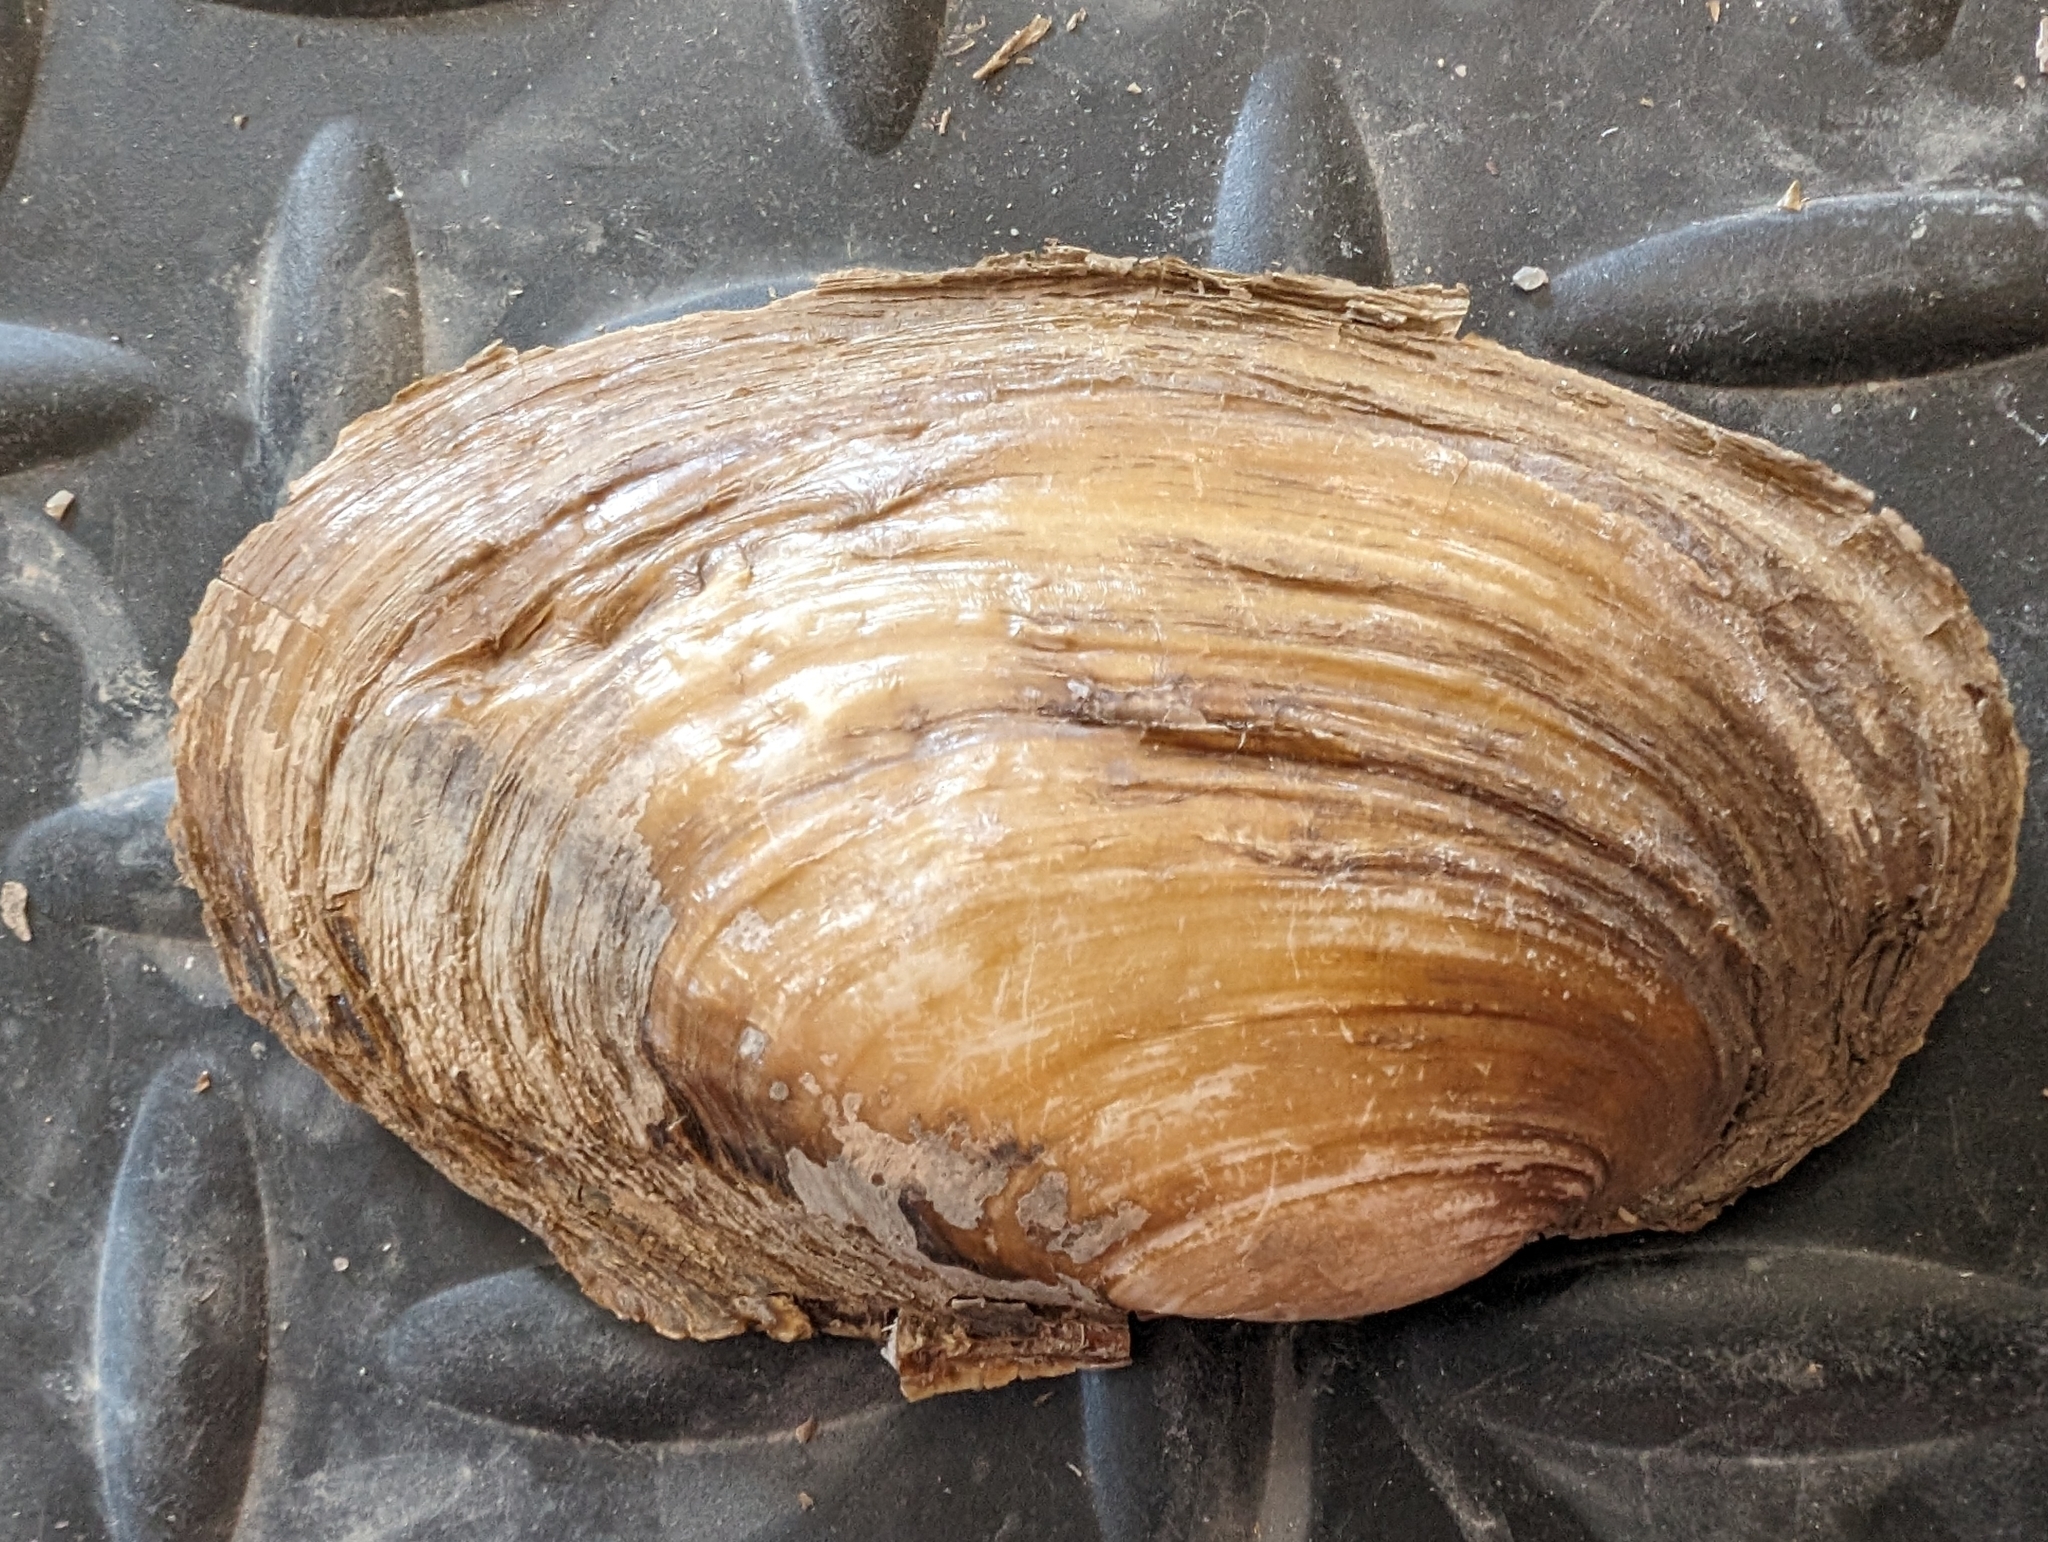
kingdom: Animalia
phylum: Mollusca
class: Bivalvia
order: Unionida
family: Unionidae
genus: Potamilus
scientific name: Potamilus fragilis
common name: Fragile papershell
